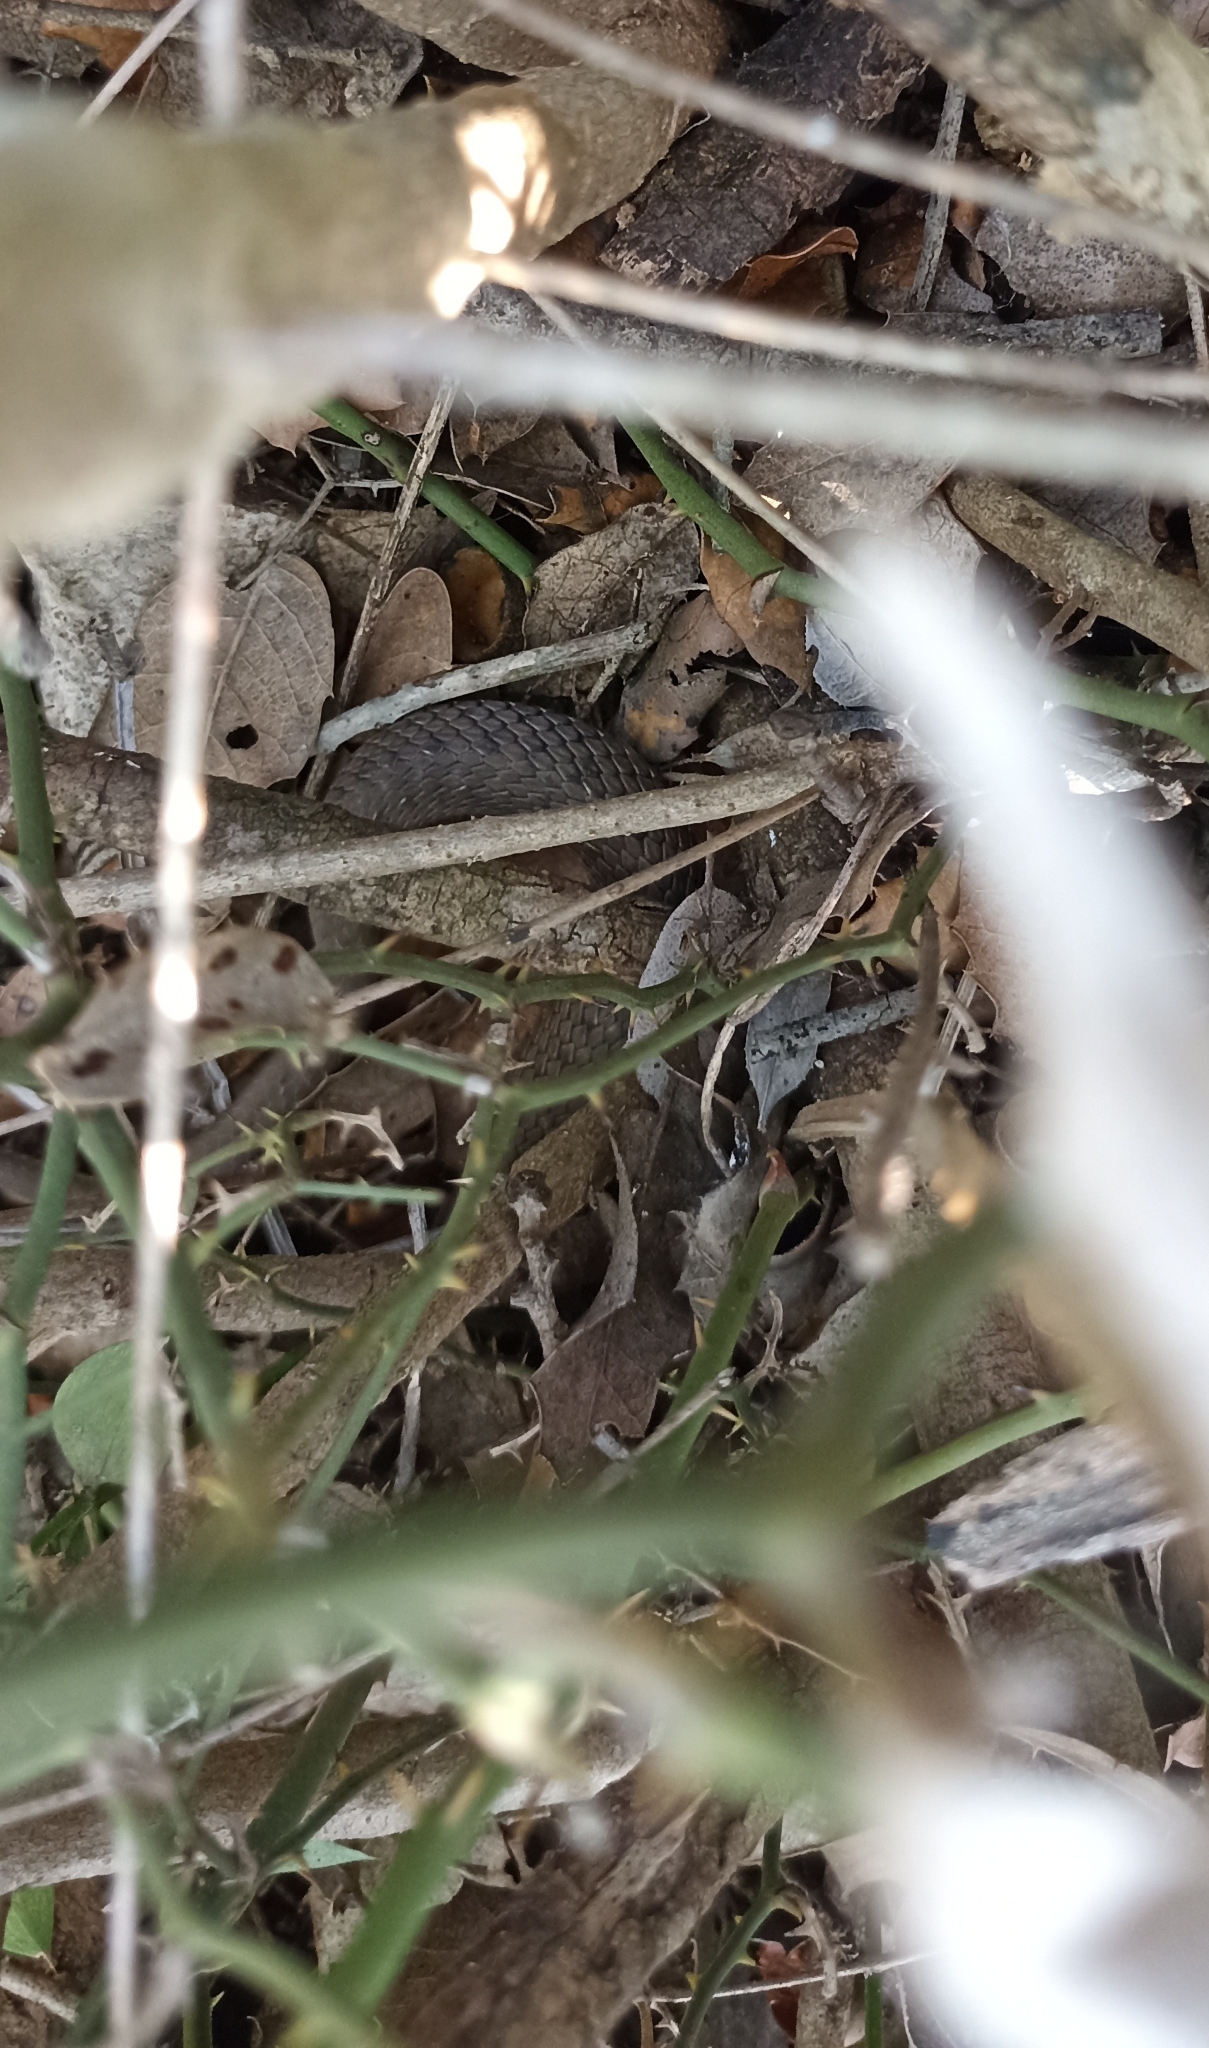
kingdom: Animalia
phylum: Chordata
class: Squamata
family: Psammophiidae
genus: Malpolon
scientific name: Malpolon monspessulanus
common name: Montpellier snake
